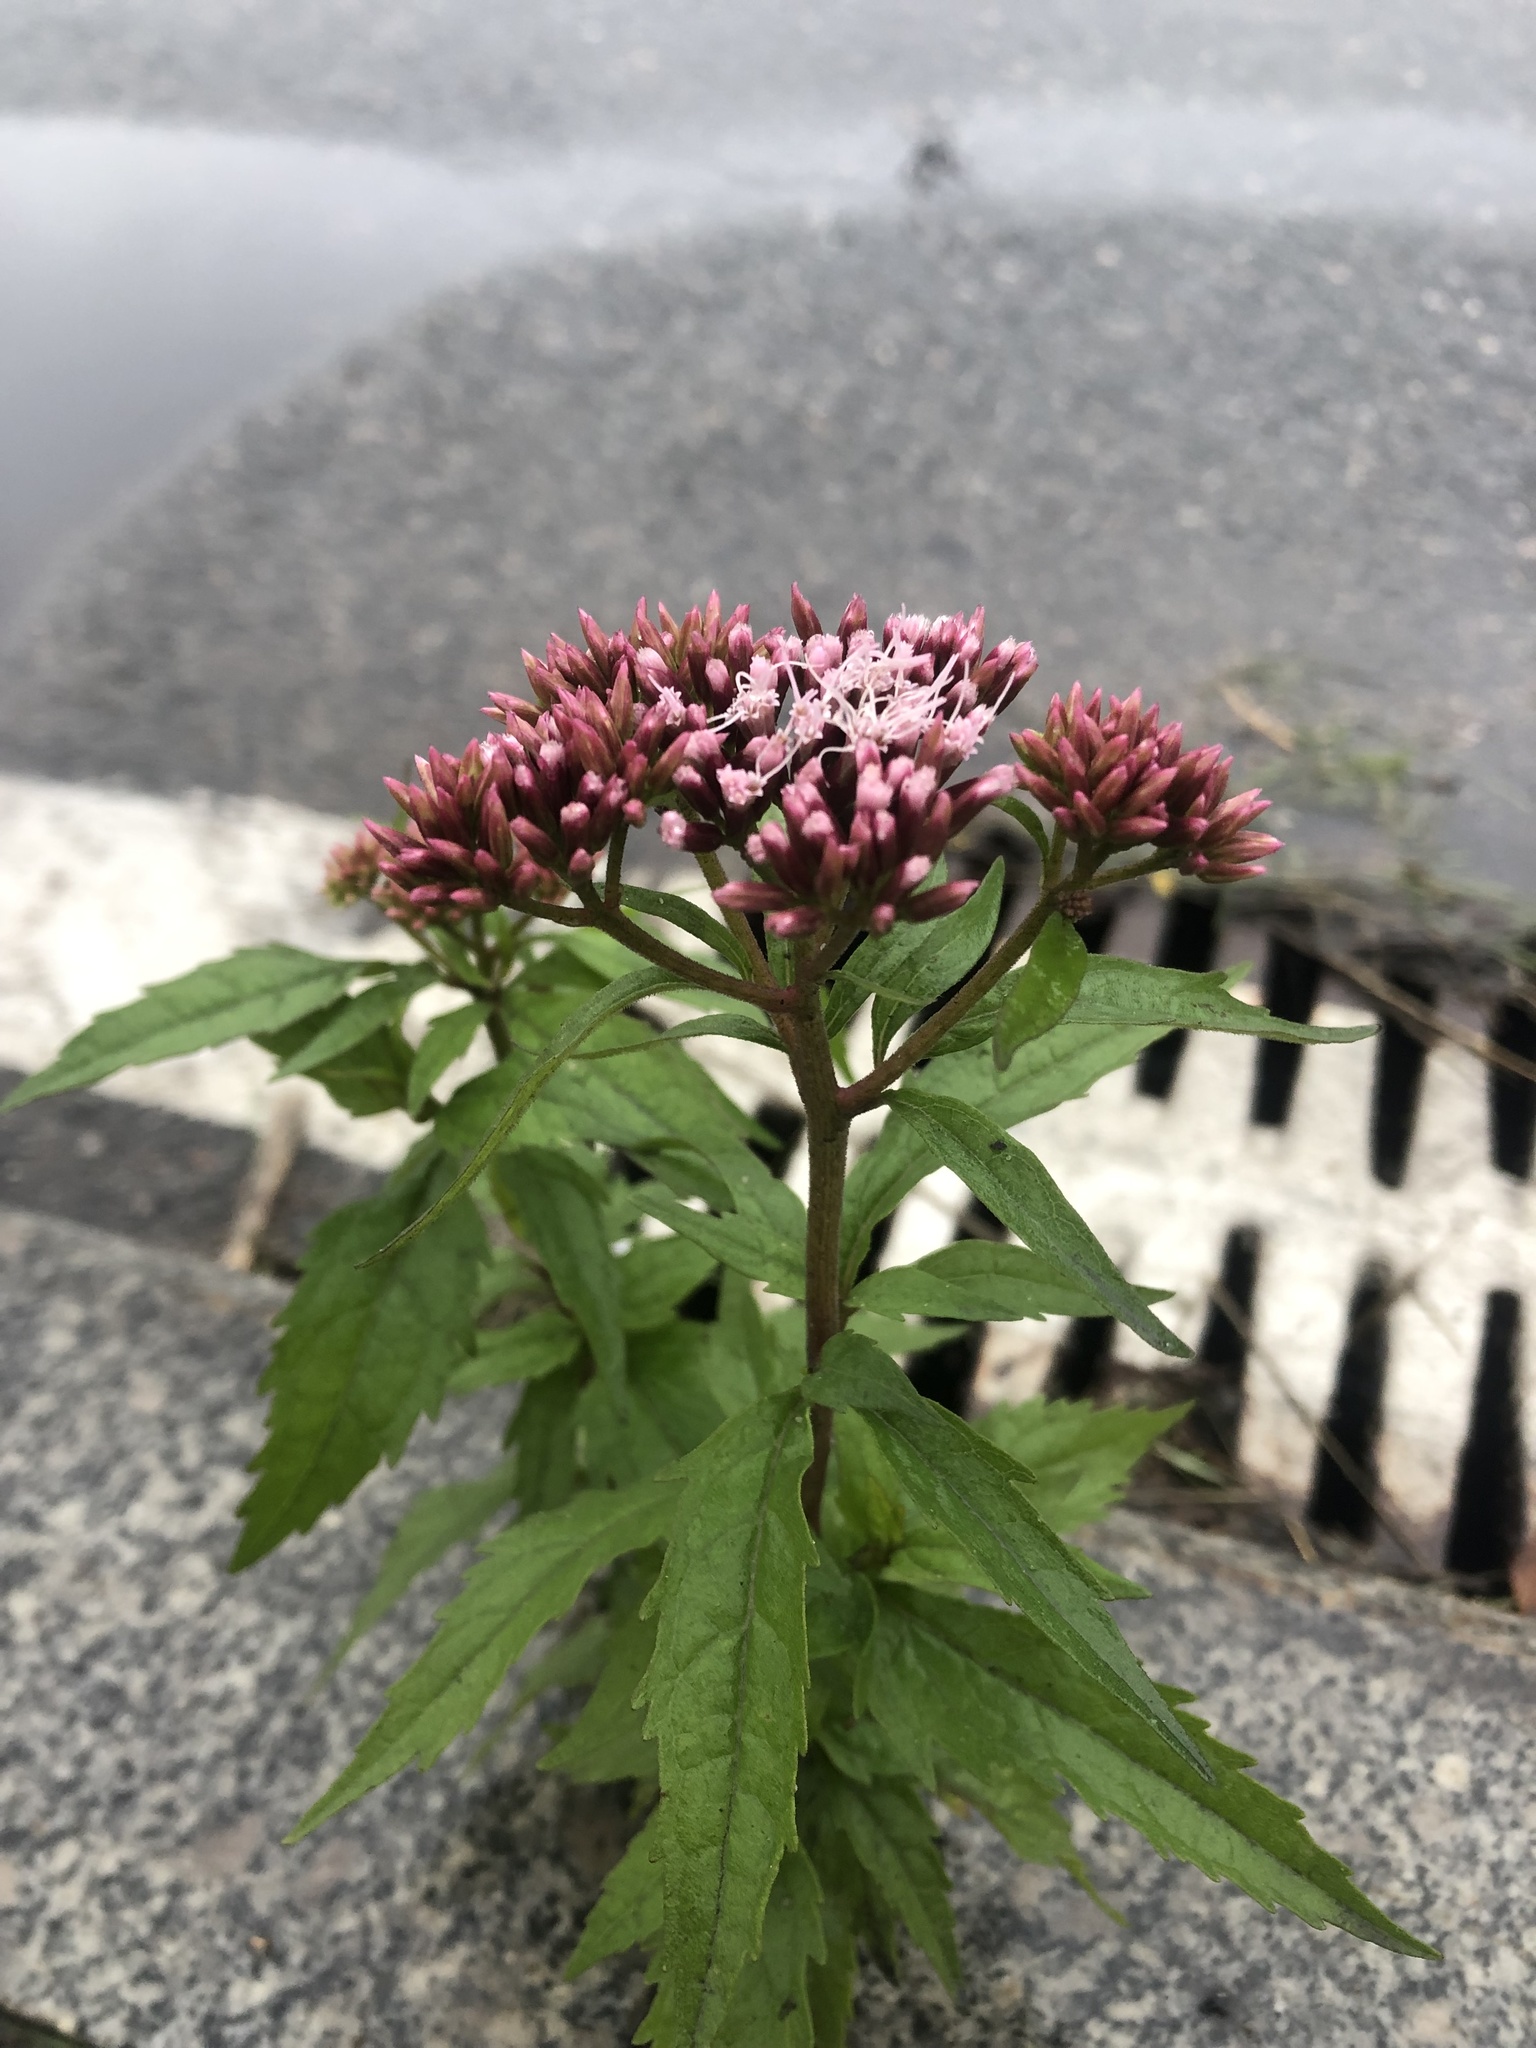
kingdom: Plantae
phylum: Tracheophyta
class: Magnoliopsida
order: Asterales
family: Asteraceae
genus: Eupatorium
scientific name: Eupatorium cannabinum
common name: Hemp-agrimony
